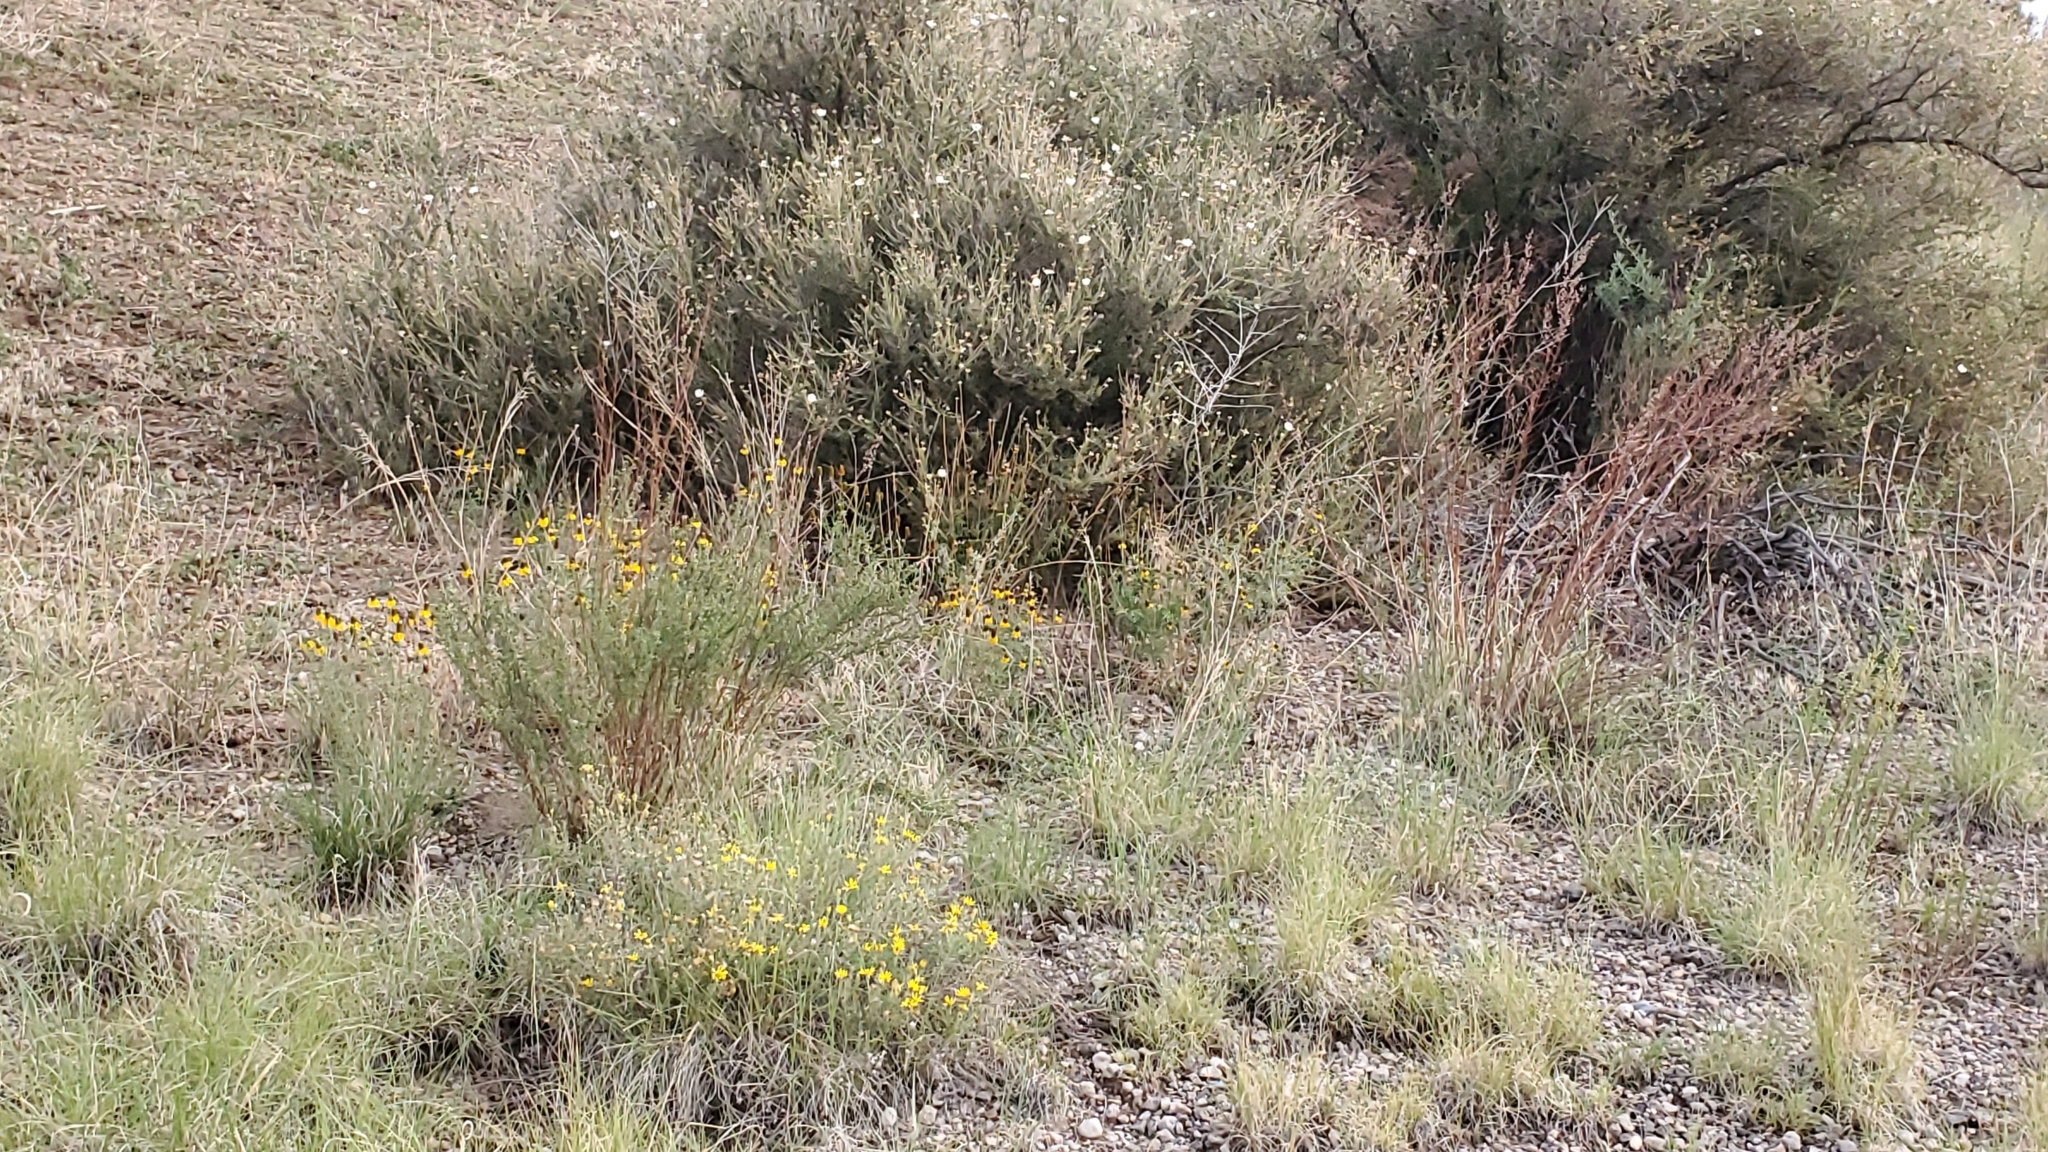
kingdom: Plantae
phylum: Tracheophyta
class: Magnoliopsida
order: Rosales
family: Rosaceae
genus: Fallugia
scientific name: Fallugia paradoxa
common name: Apache-plume
